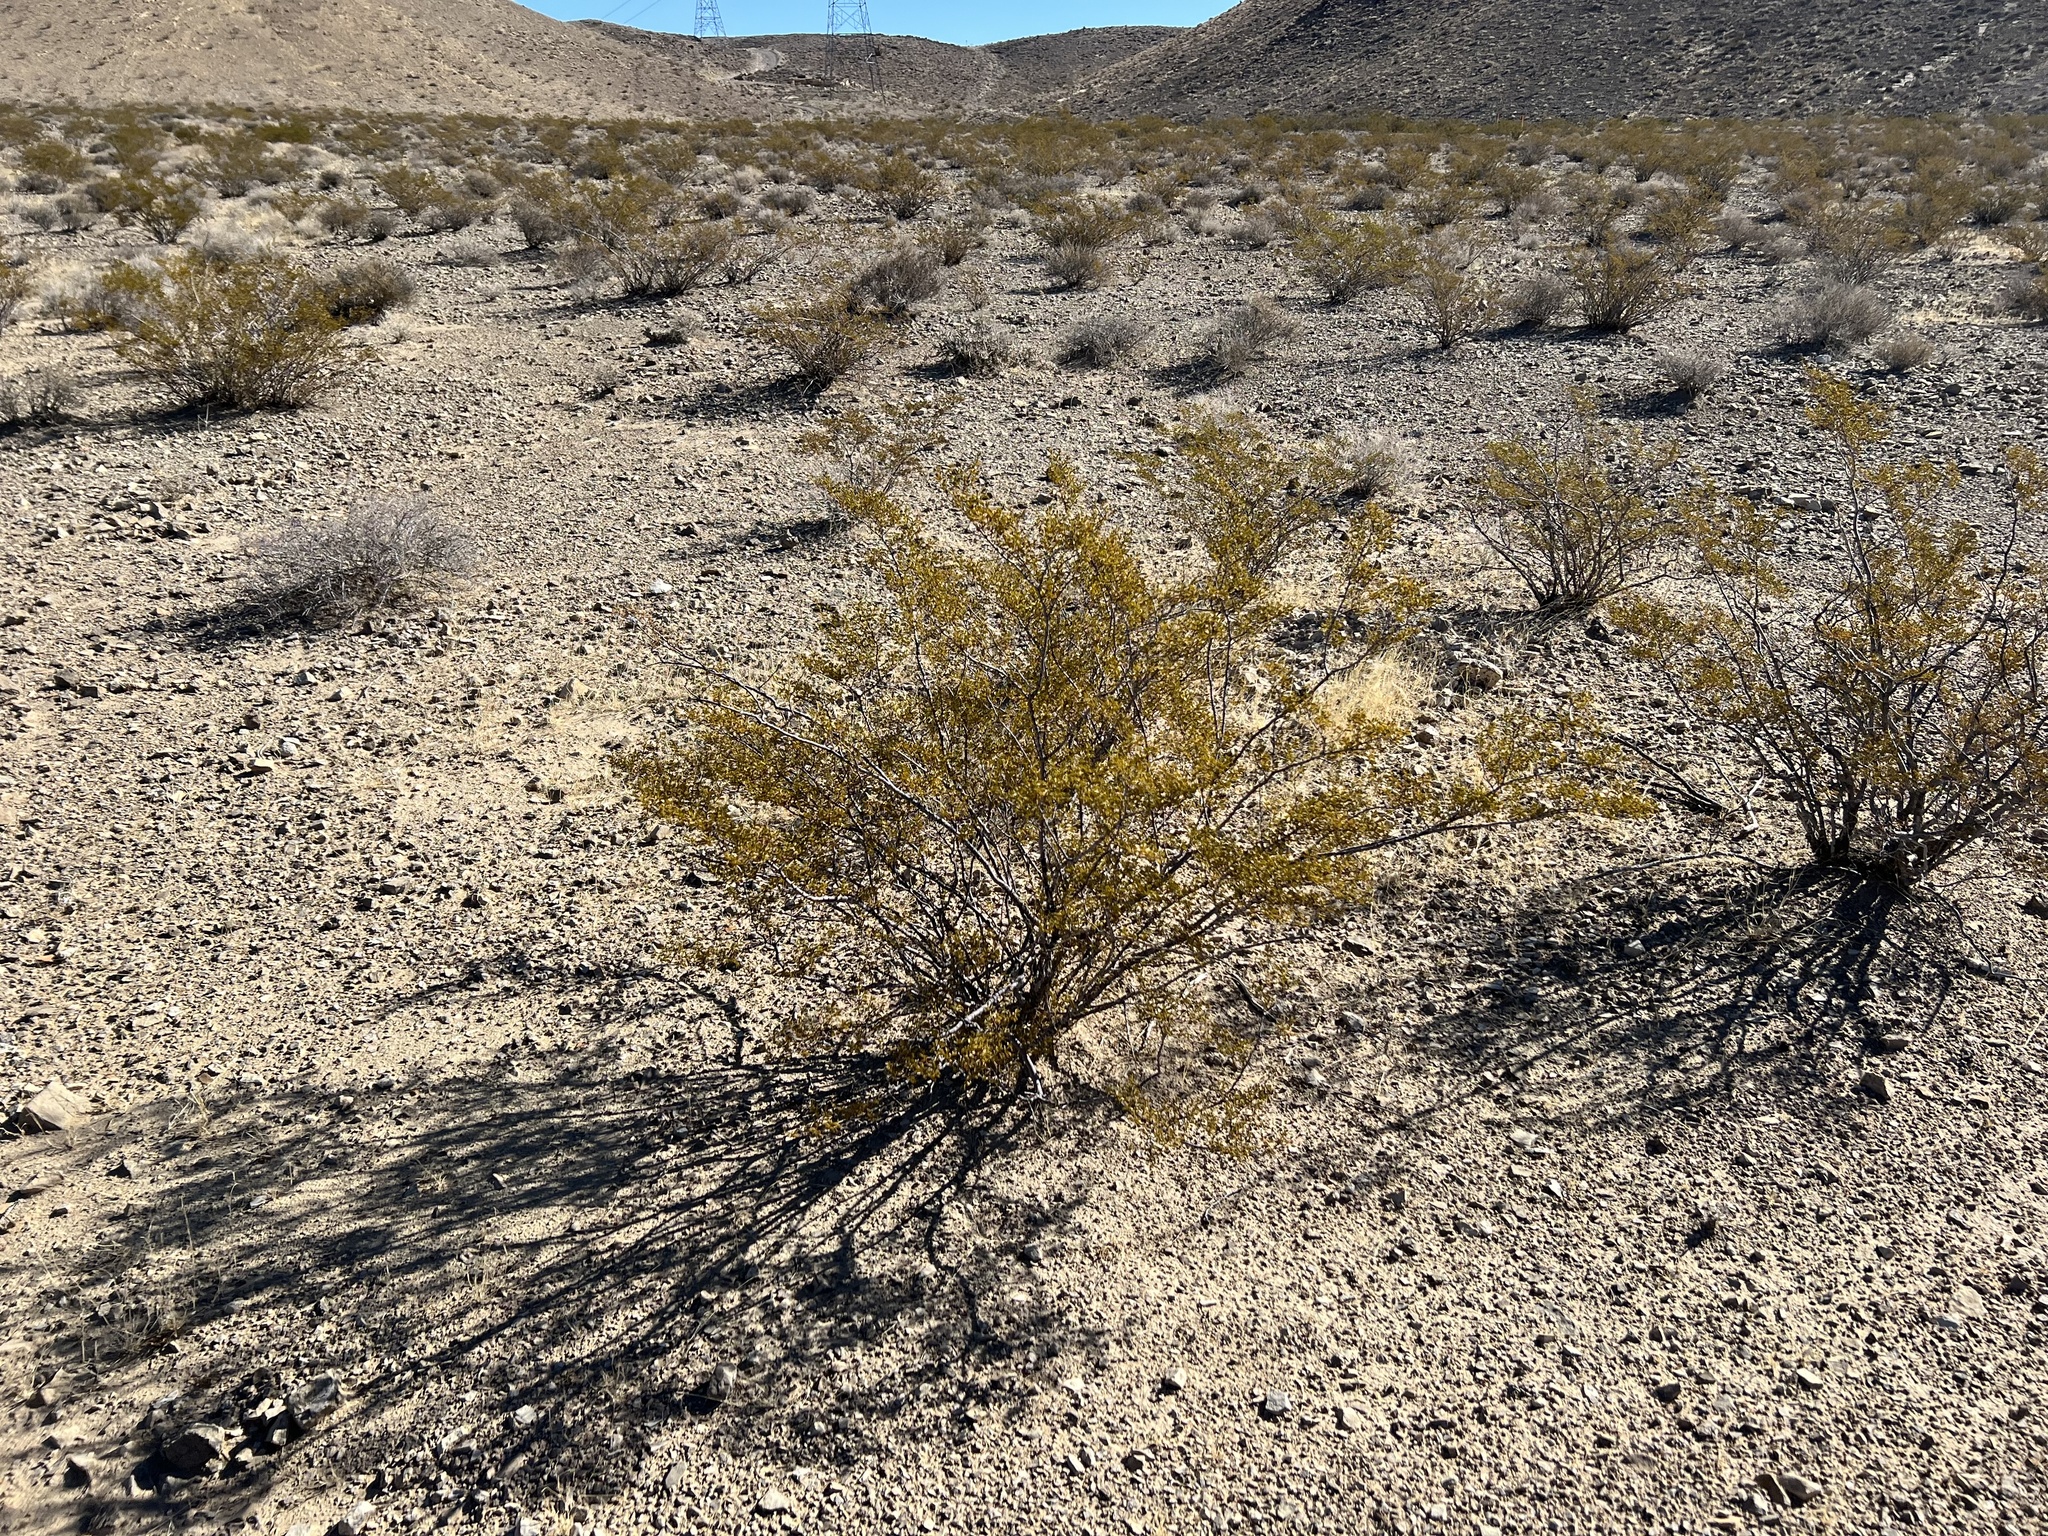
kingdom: Plantae
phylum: Tracheophyta
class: Magnoliopsida
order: Zygophyllales
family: Zygophyllaceae
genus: Larrea
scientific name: Larrea tridentata
